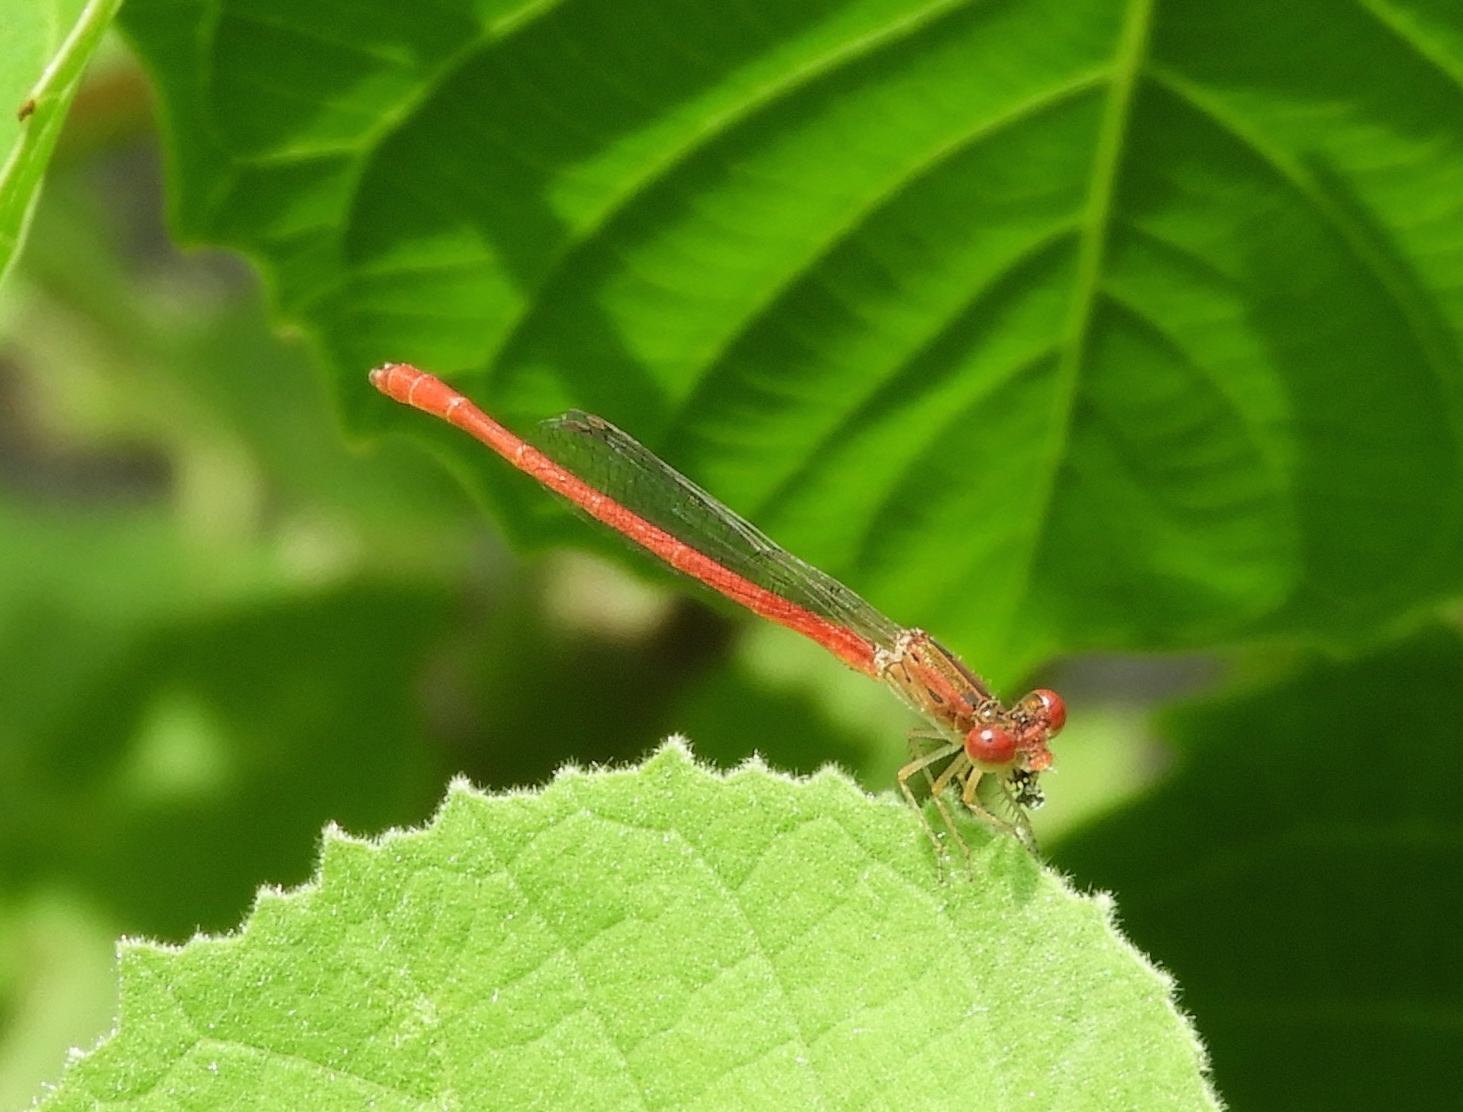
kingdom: Animalia
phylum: Arthropoda
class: Insecta
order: Odonata
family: Coenagrionidae
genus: Telebasis
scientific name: Telebasis salva
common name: Desert firetail
